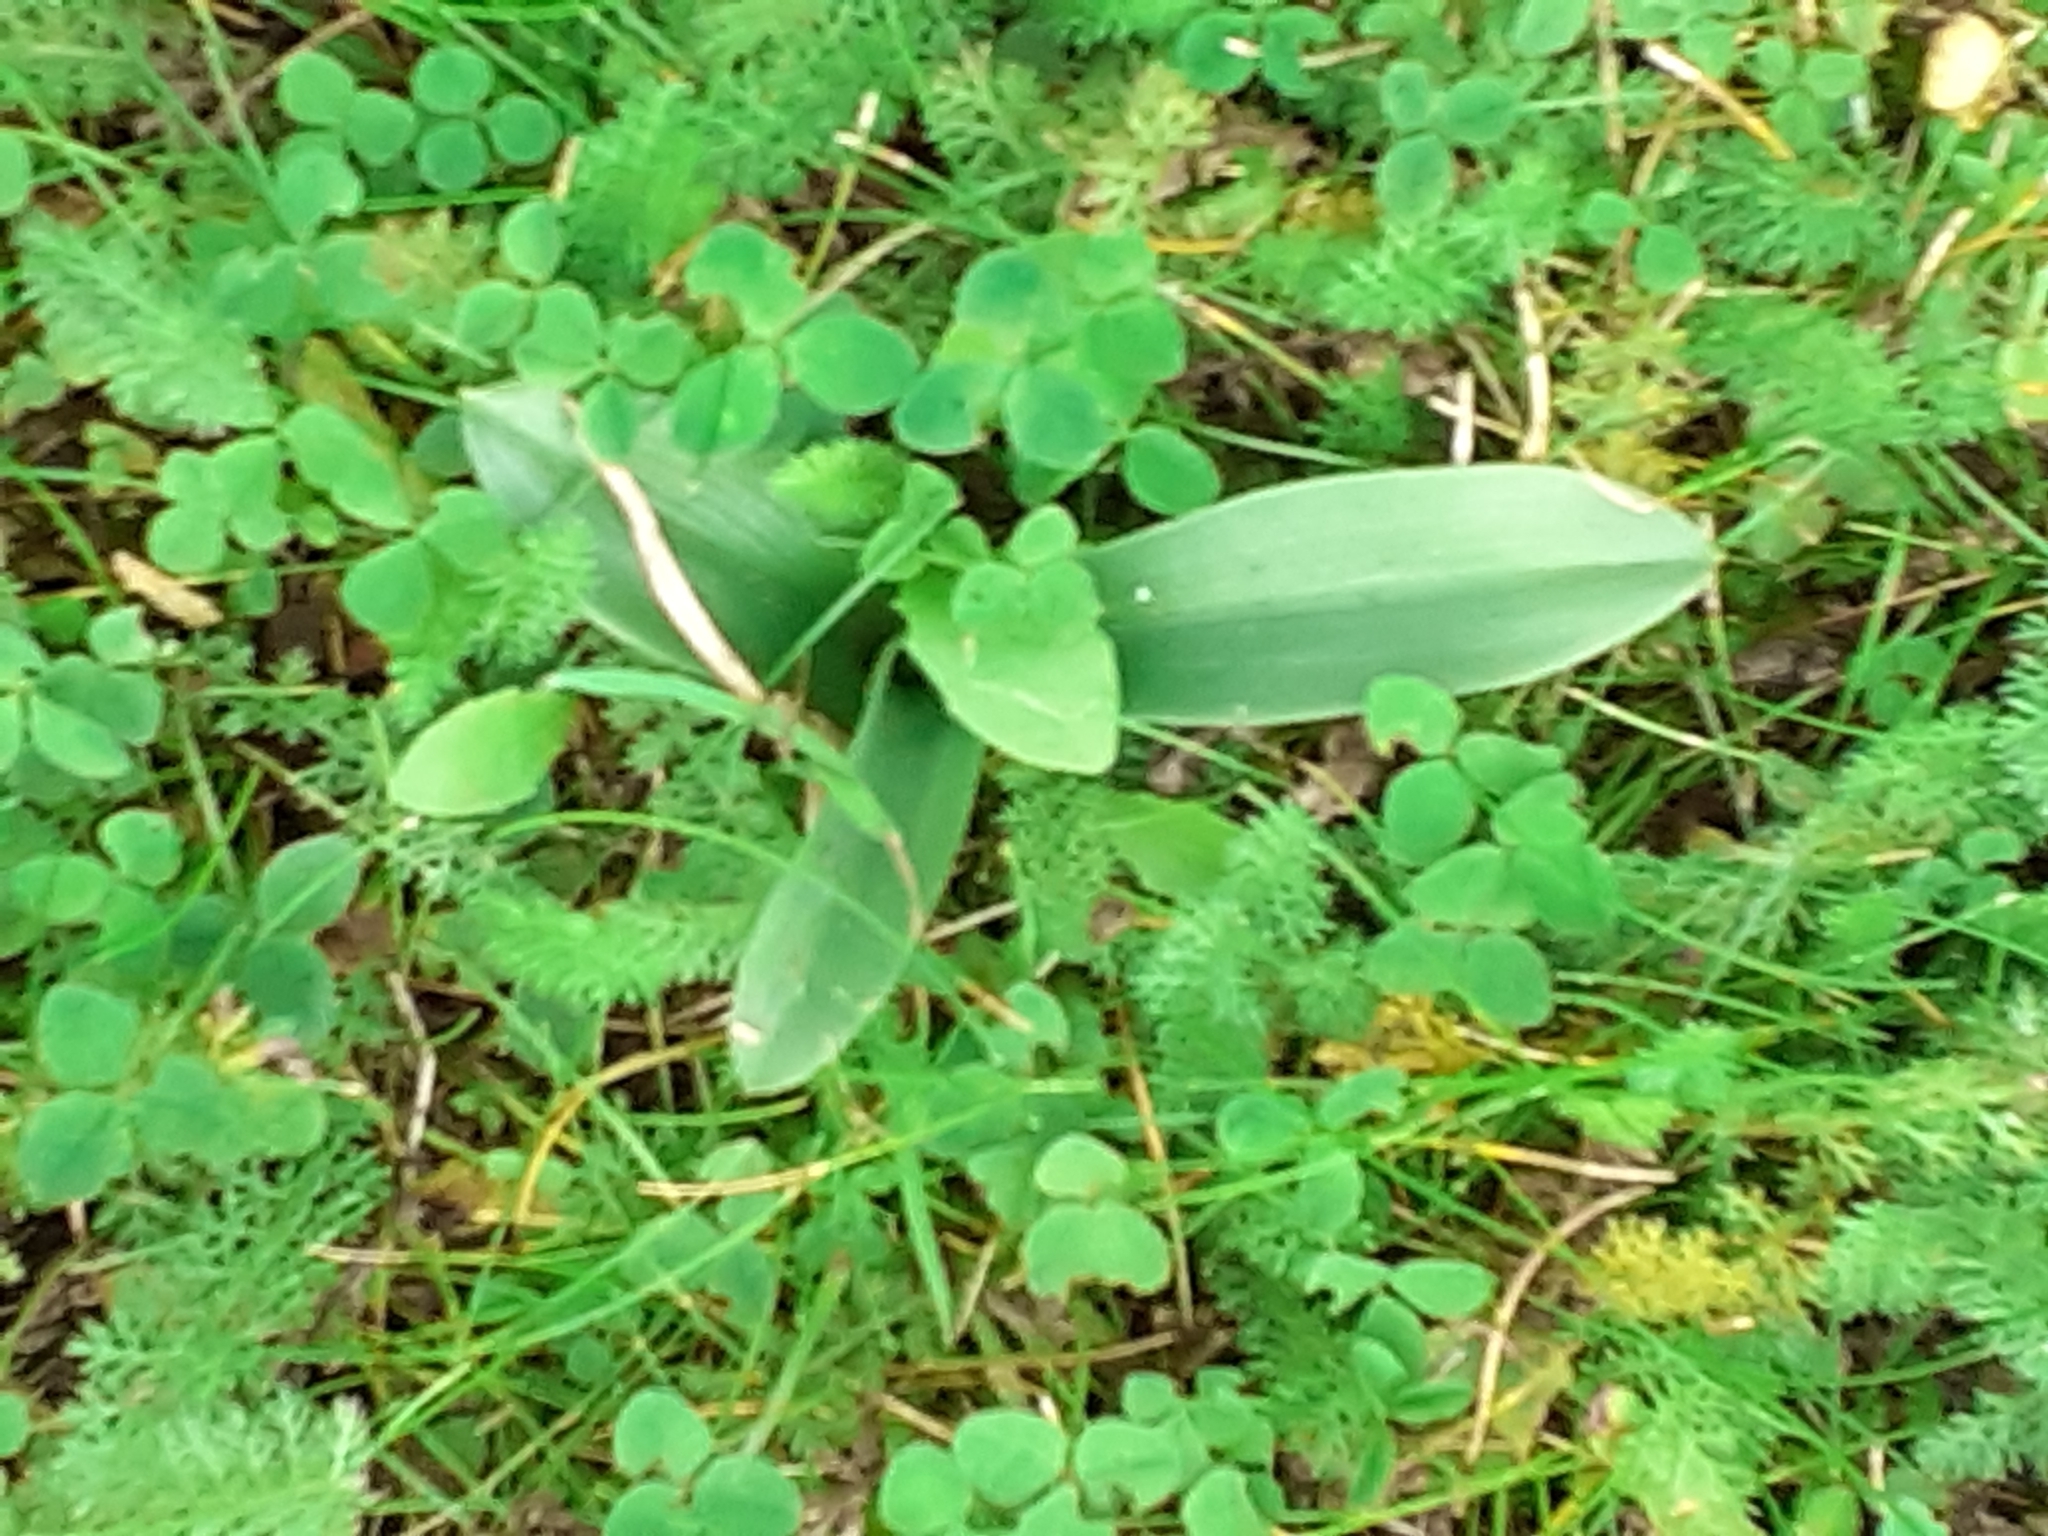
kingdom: Plantae
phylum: Tracheophyta
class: Liliopsida
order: Asparagales
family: Orchidaceae
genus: Ophrys
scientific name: Ophrys apifera
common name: Bee orchid
